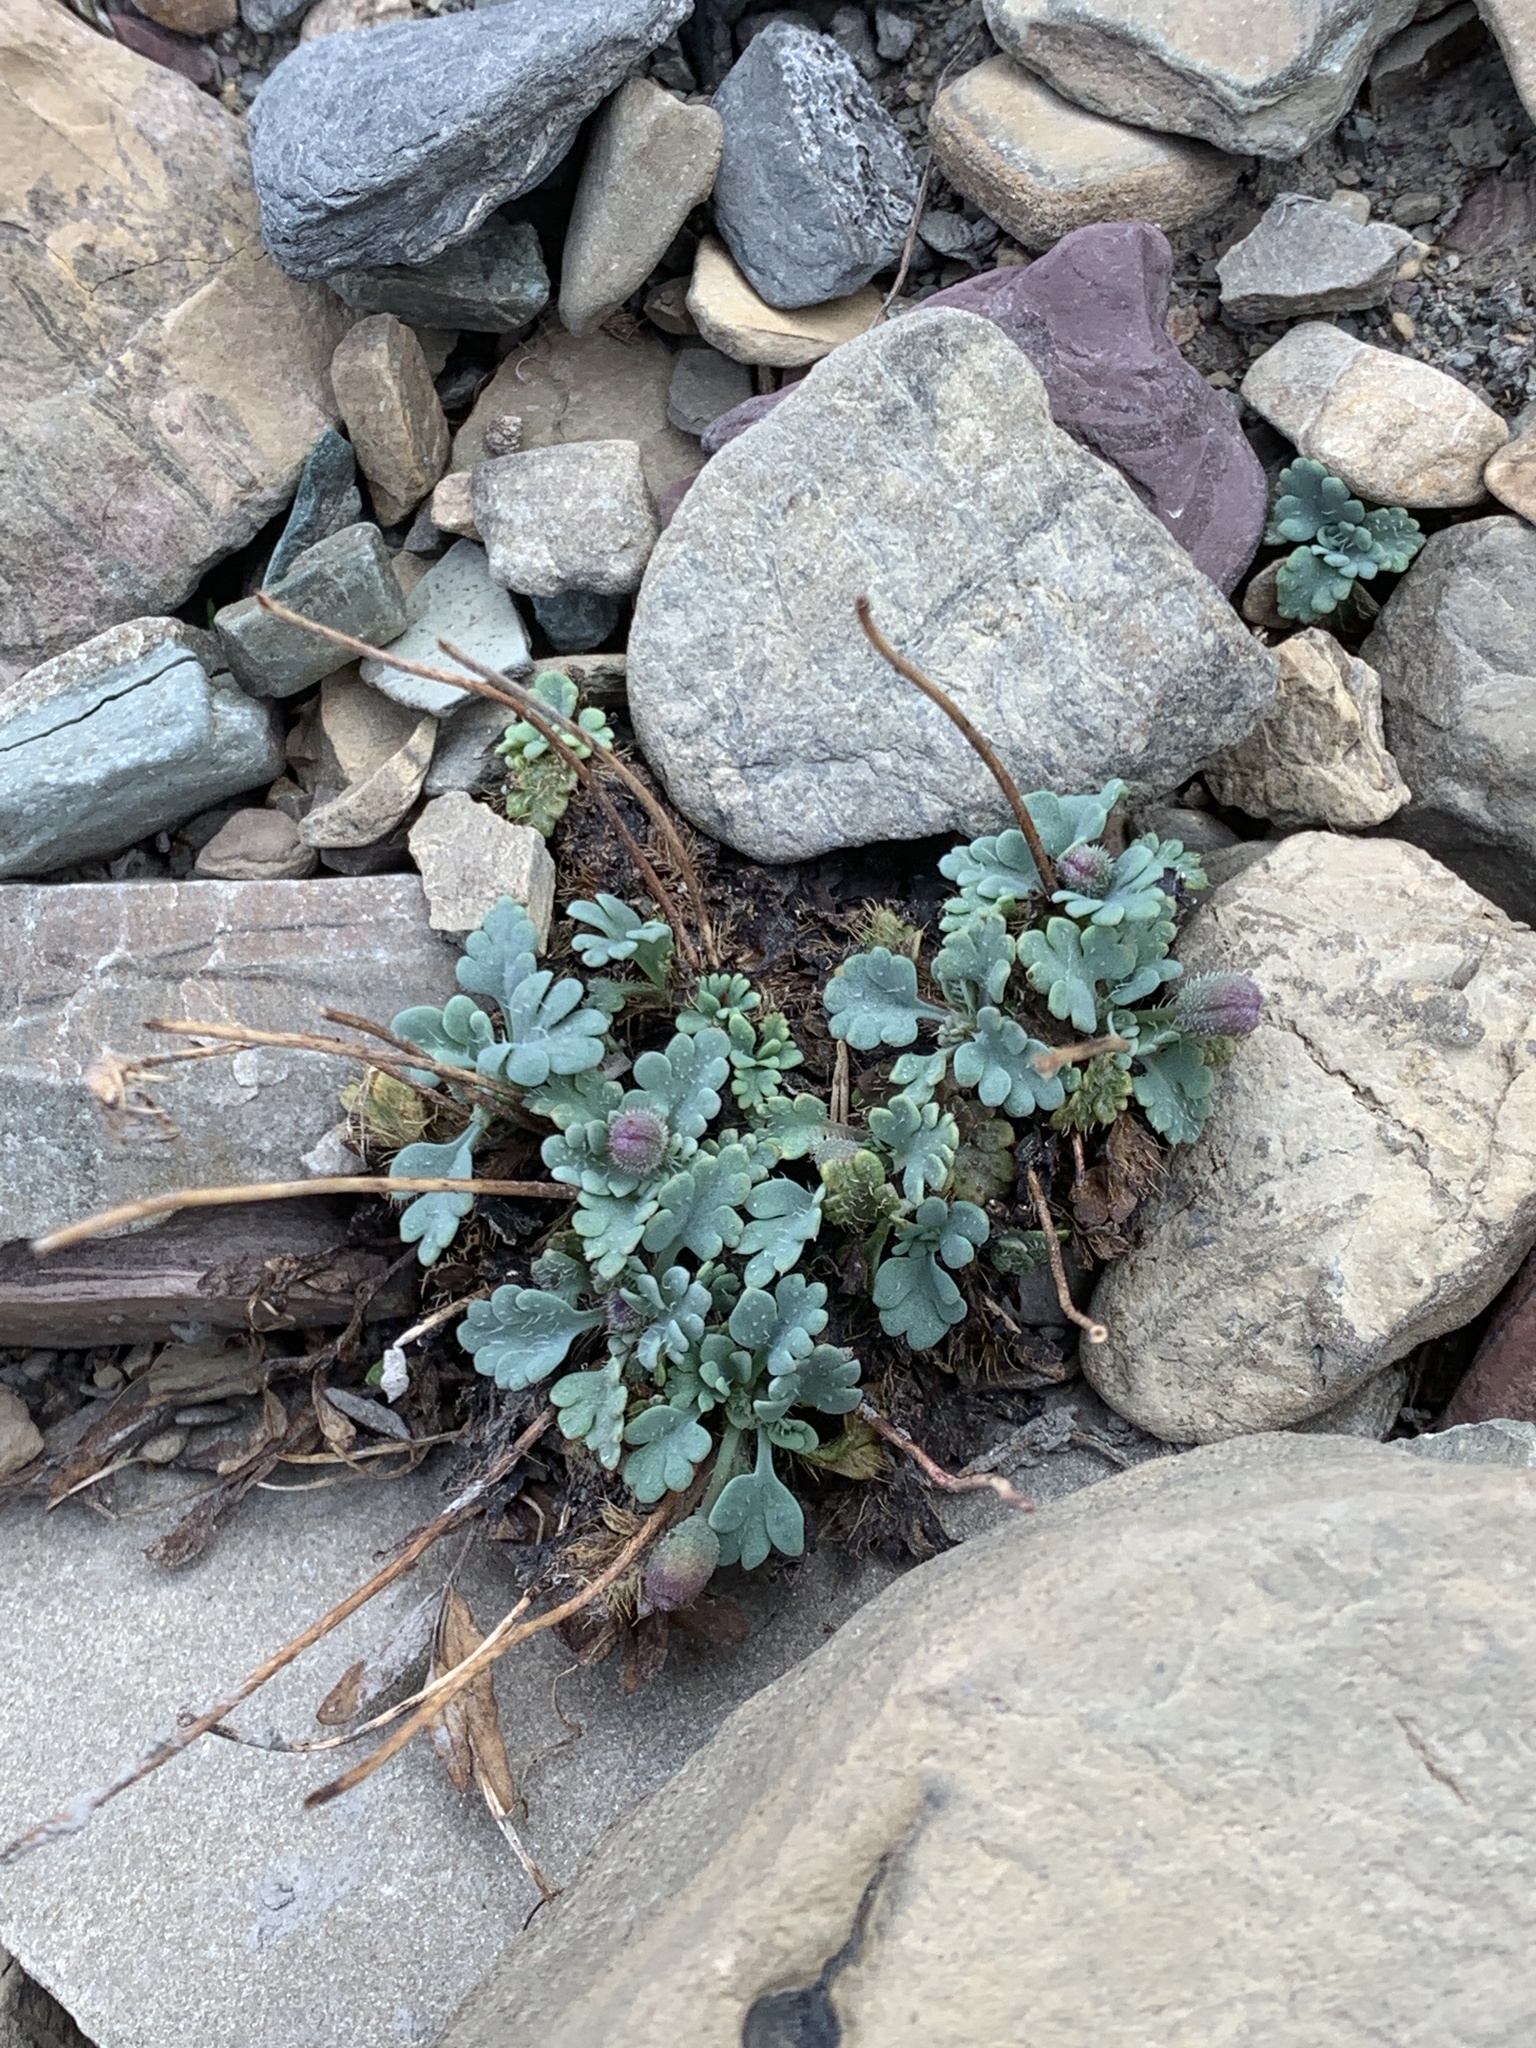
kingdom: Plantae
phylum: Tracheophyta
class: Magnoliopsida
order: Ranunculales
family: Papaveraceae
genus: Papaver
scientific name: Papaver pygmaeum
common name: Alpine glacier poppy
